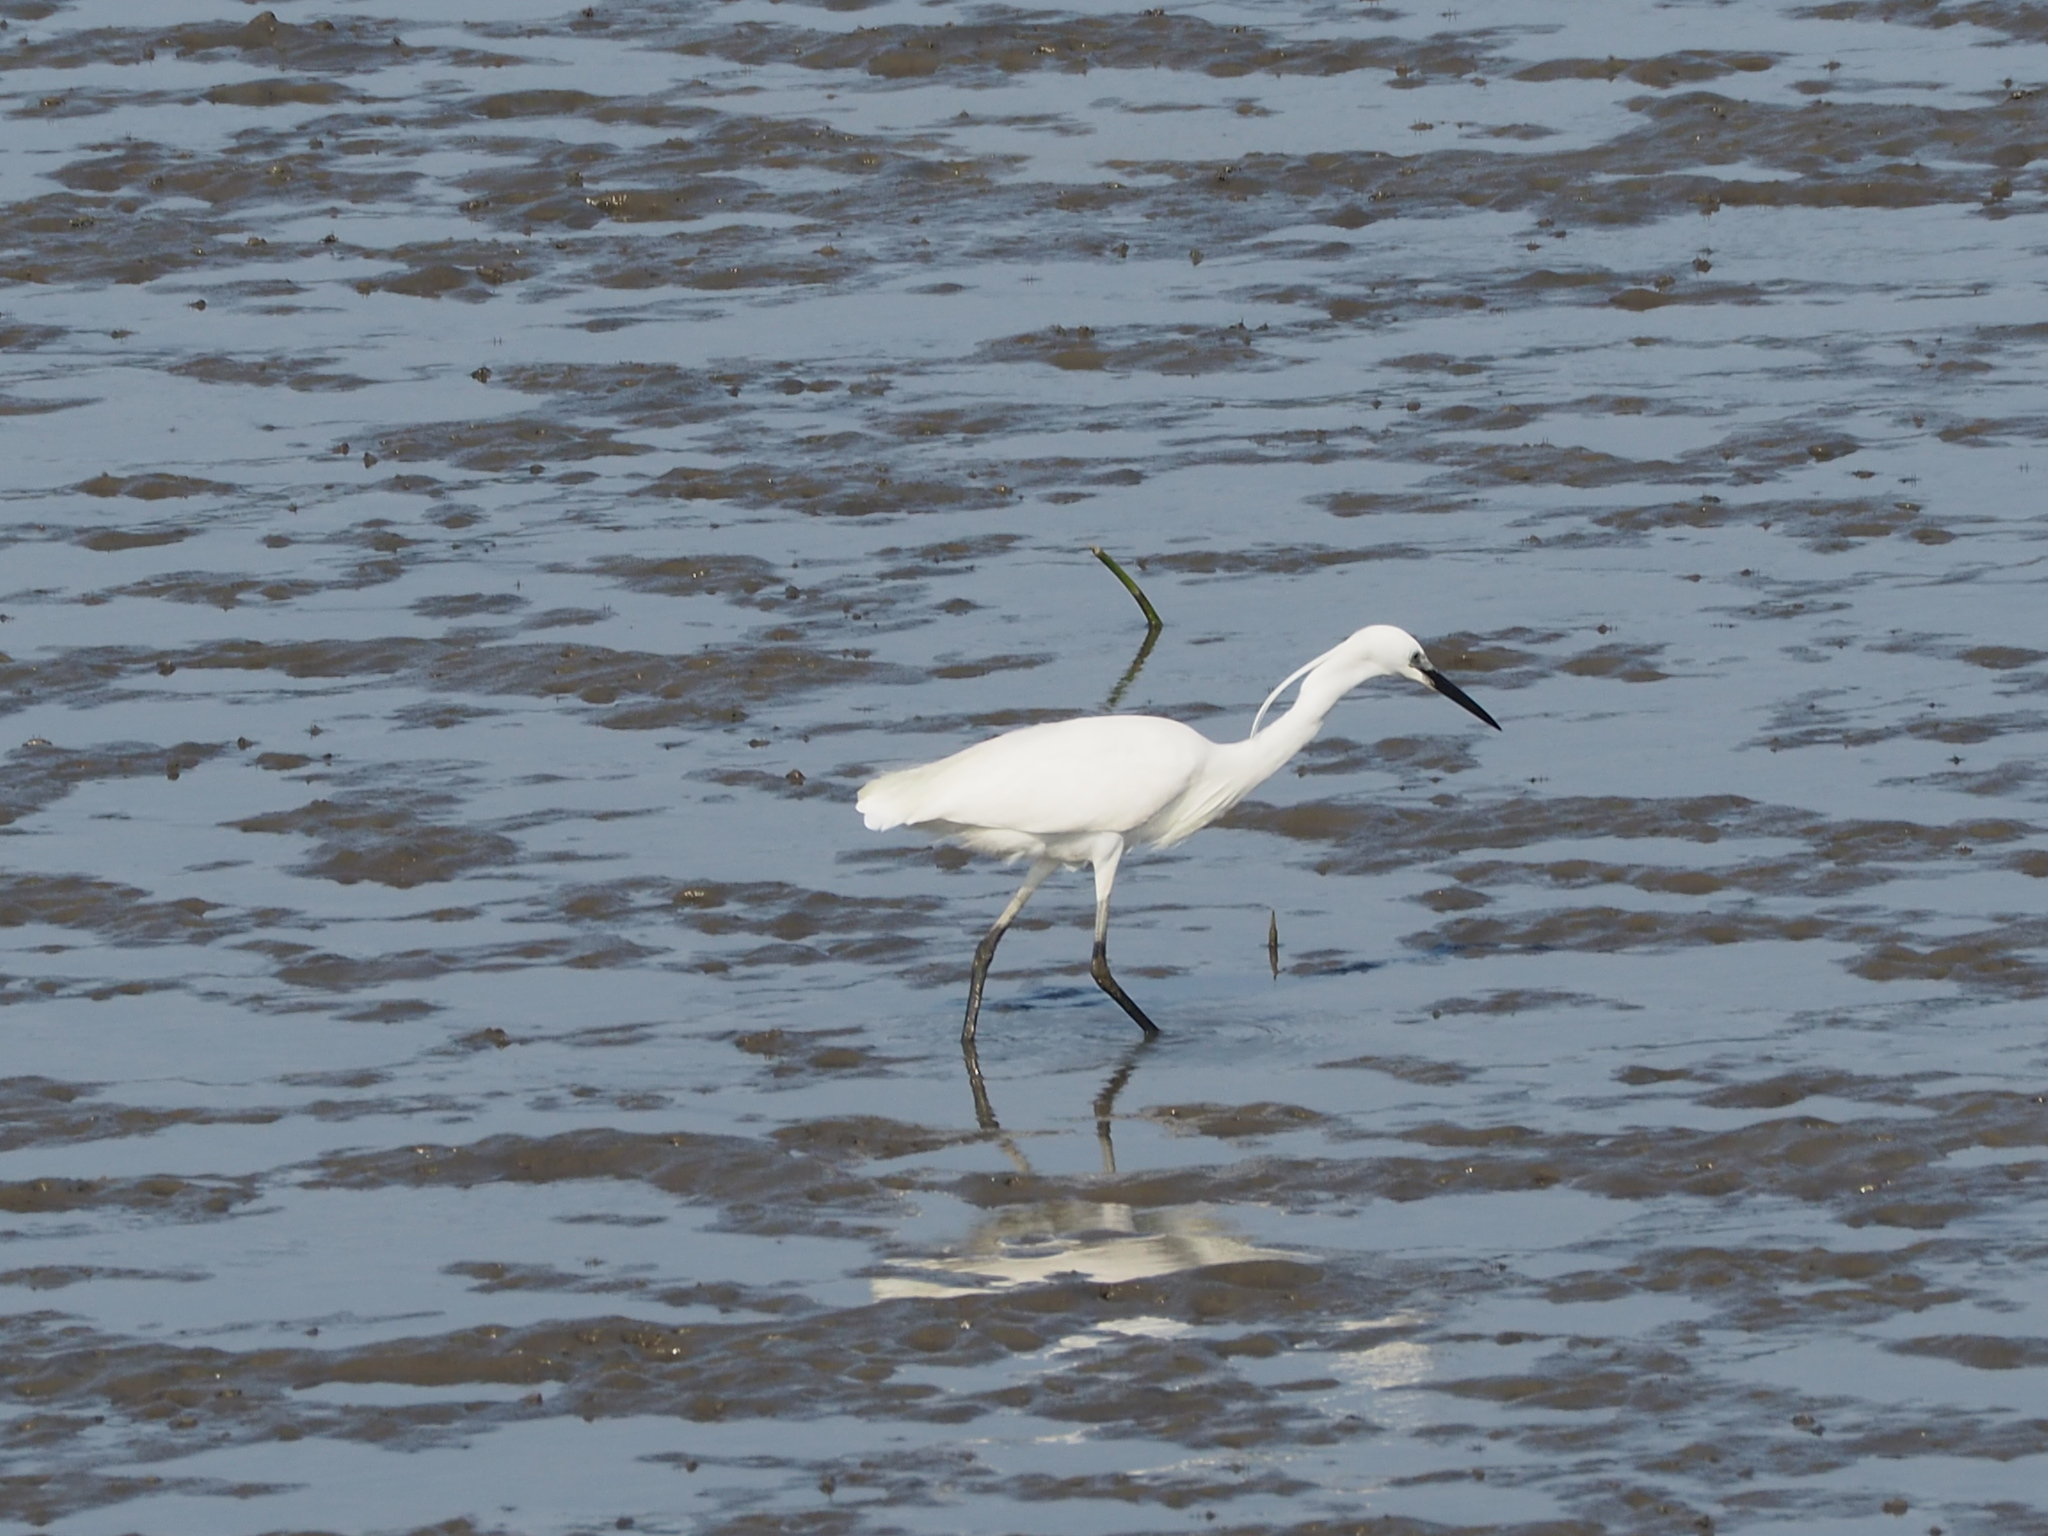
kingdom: Animalia
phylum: Chordata
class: Aves
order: Pelecaniformes
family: Ardeidae
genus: Egretta
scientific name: Egretta garzetta
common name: Little egret
